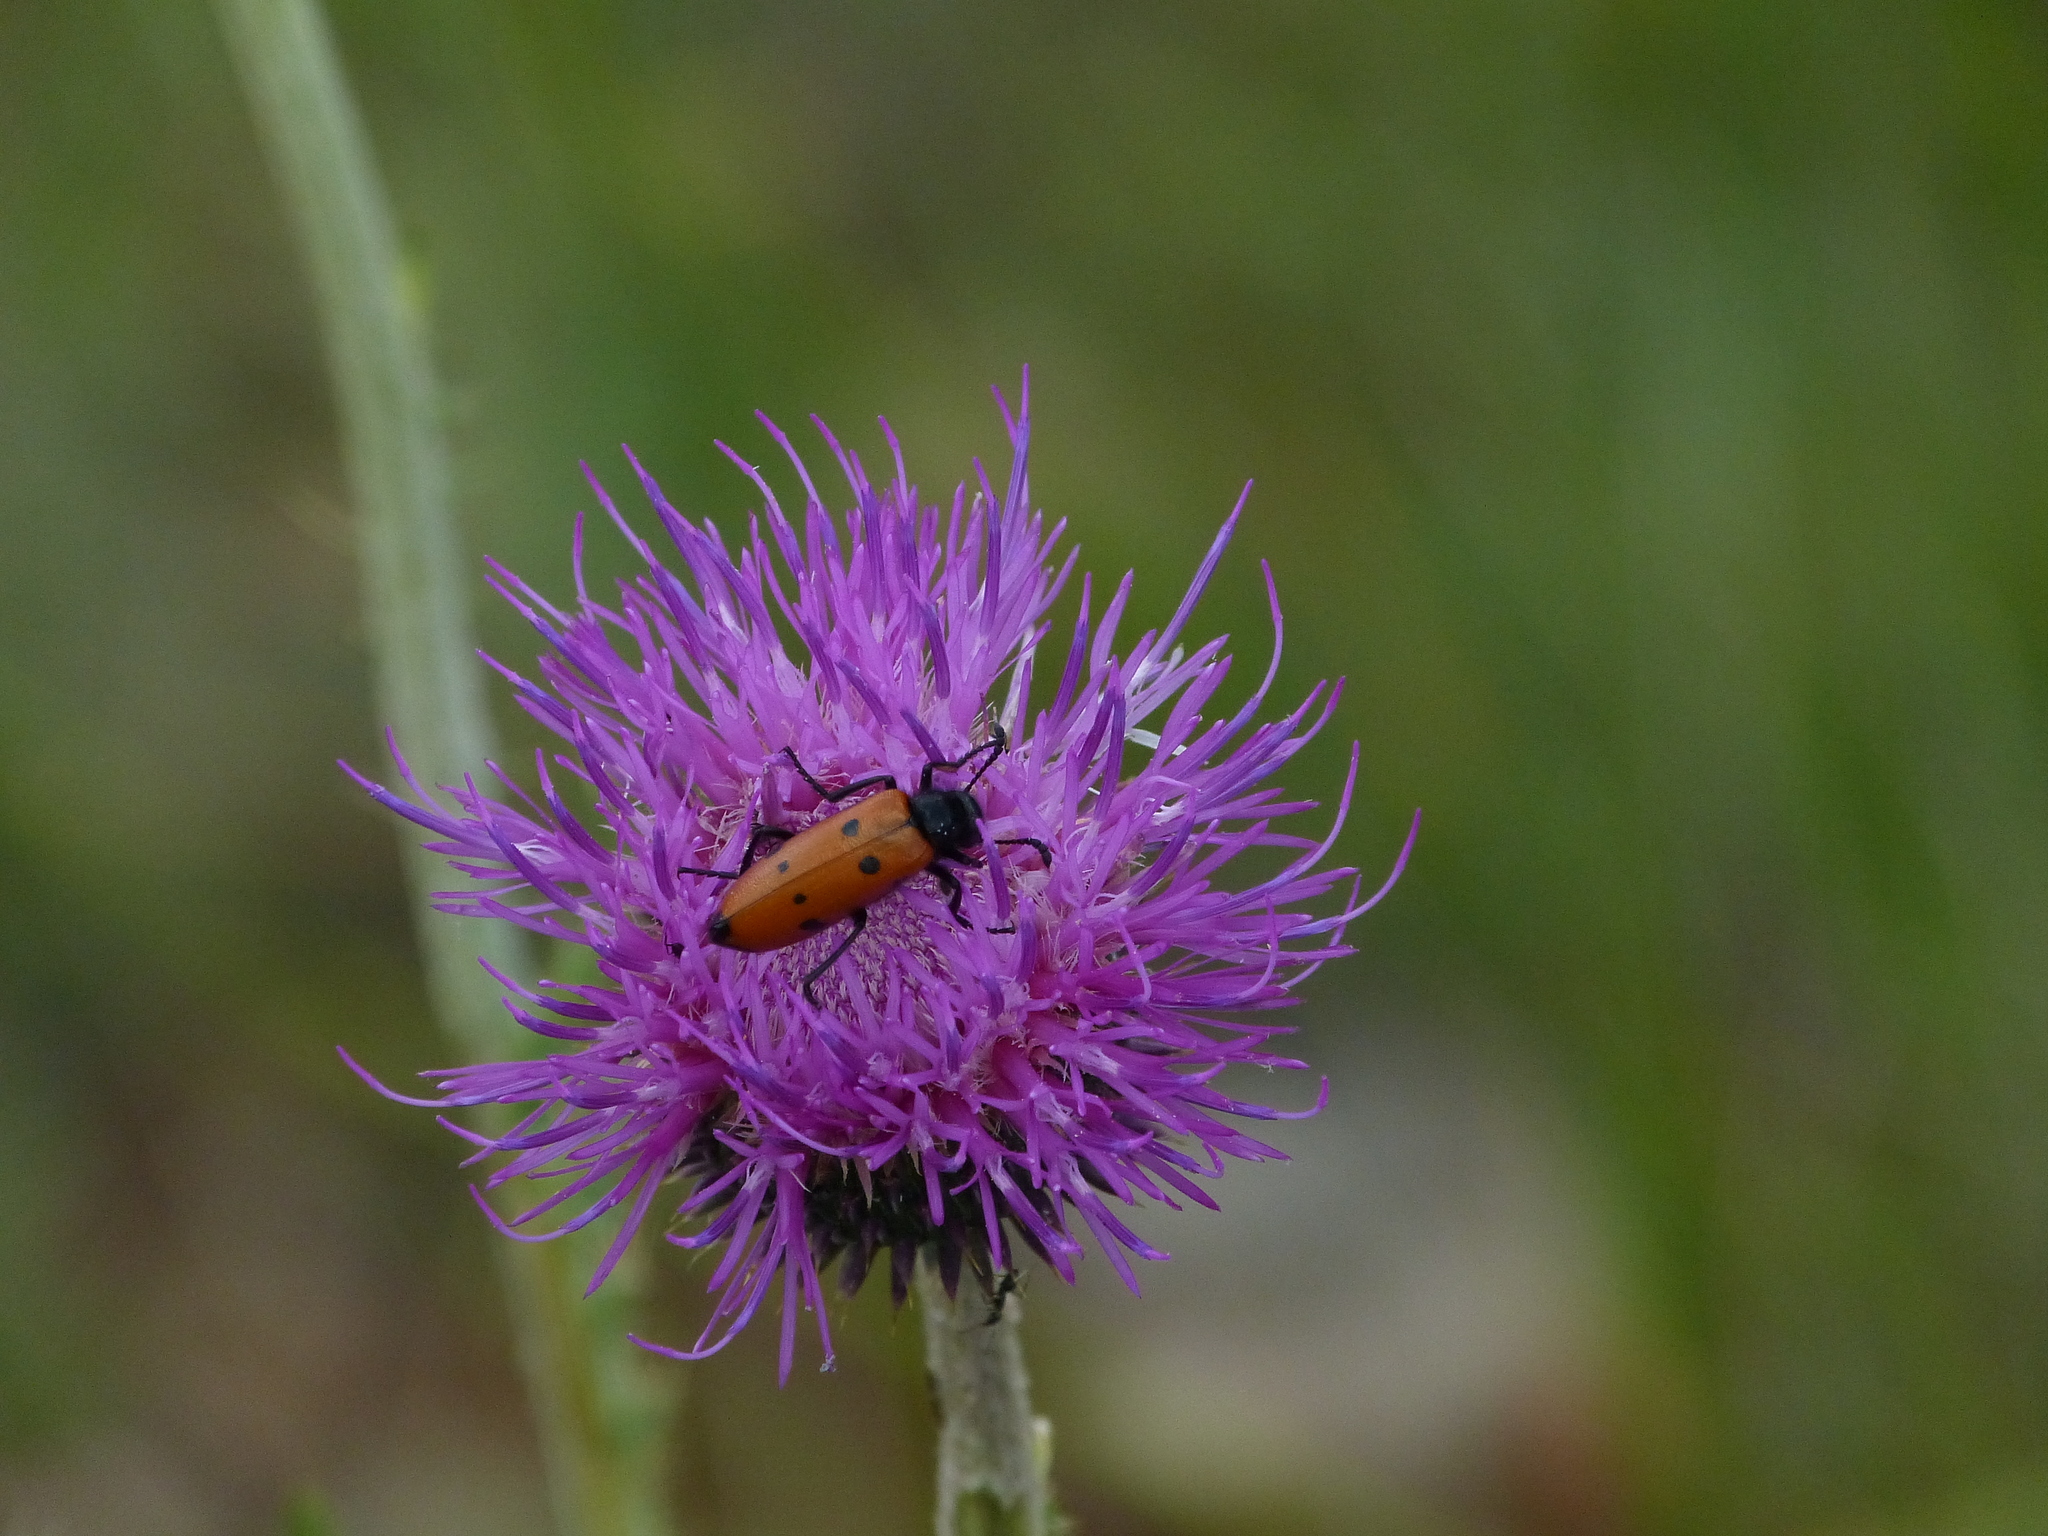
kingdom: Animalia
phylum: Arthropoda
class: Insecta
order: Coleoptera
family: Meloidae
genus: Mylabris
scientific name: Mylabris quadripunctata
